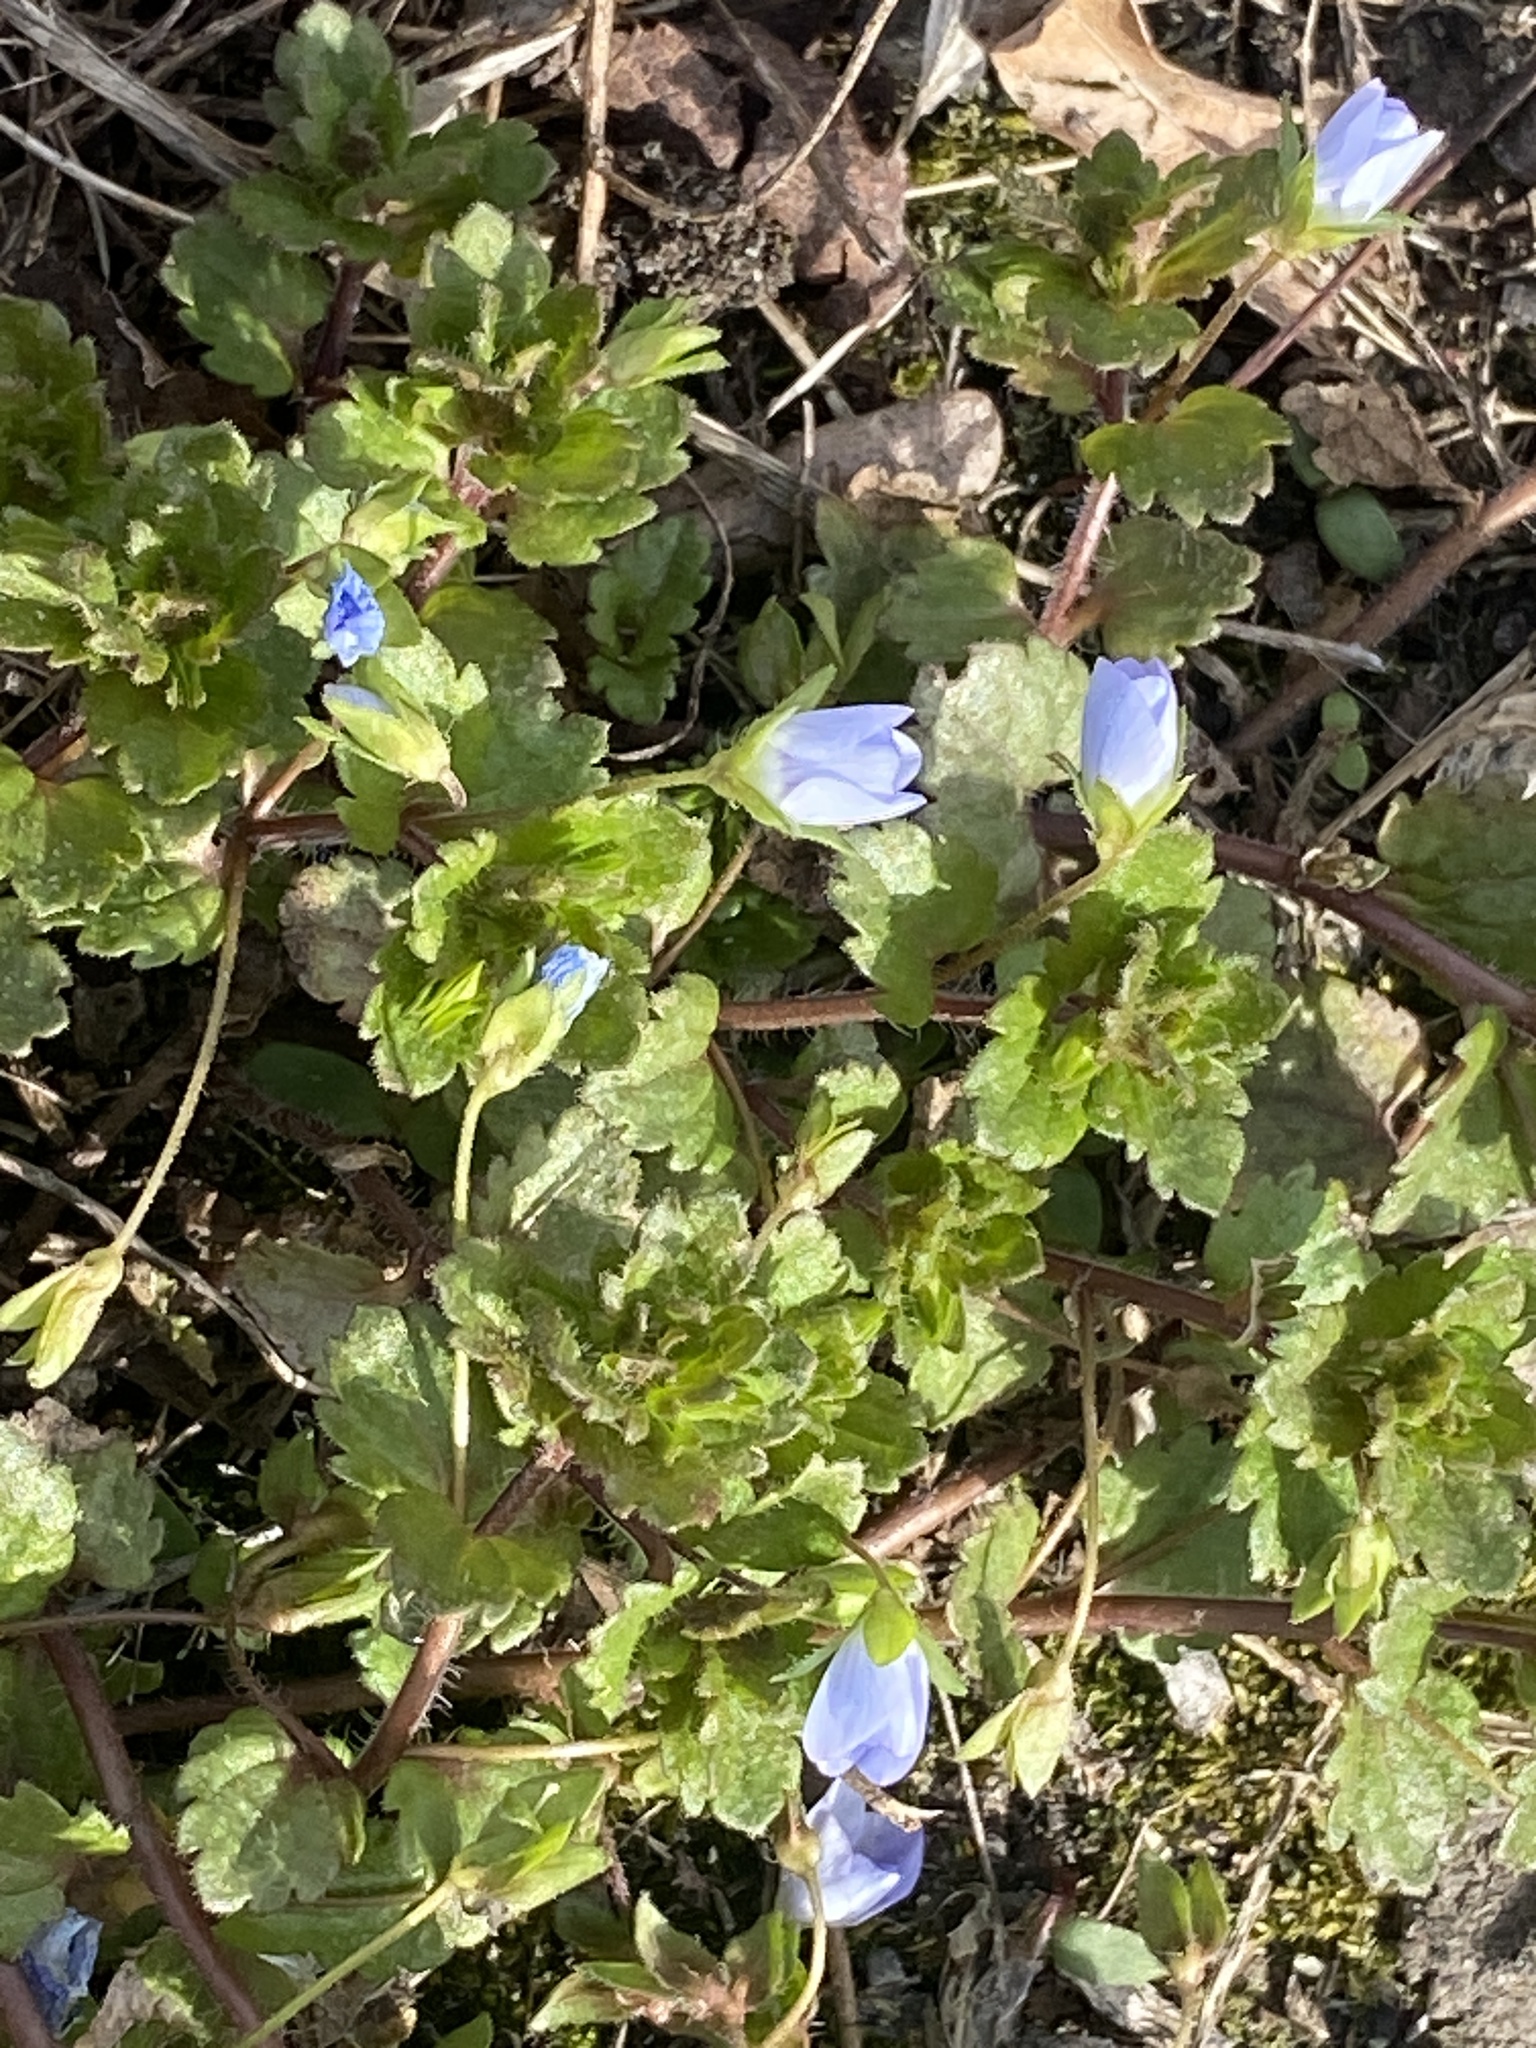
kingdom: Plantae
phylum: Tracheophyta
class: Magnoliopsida
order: Lamiales
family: Plantaginaceae
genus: Veronica
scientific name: Veronica persica
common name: Common field-speedwell
